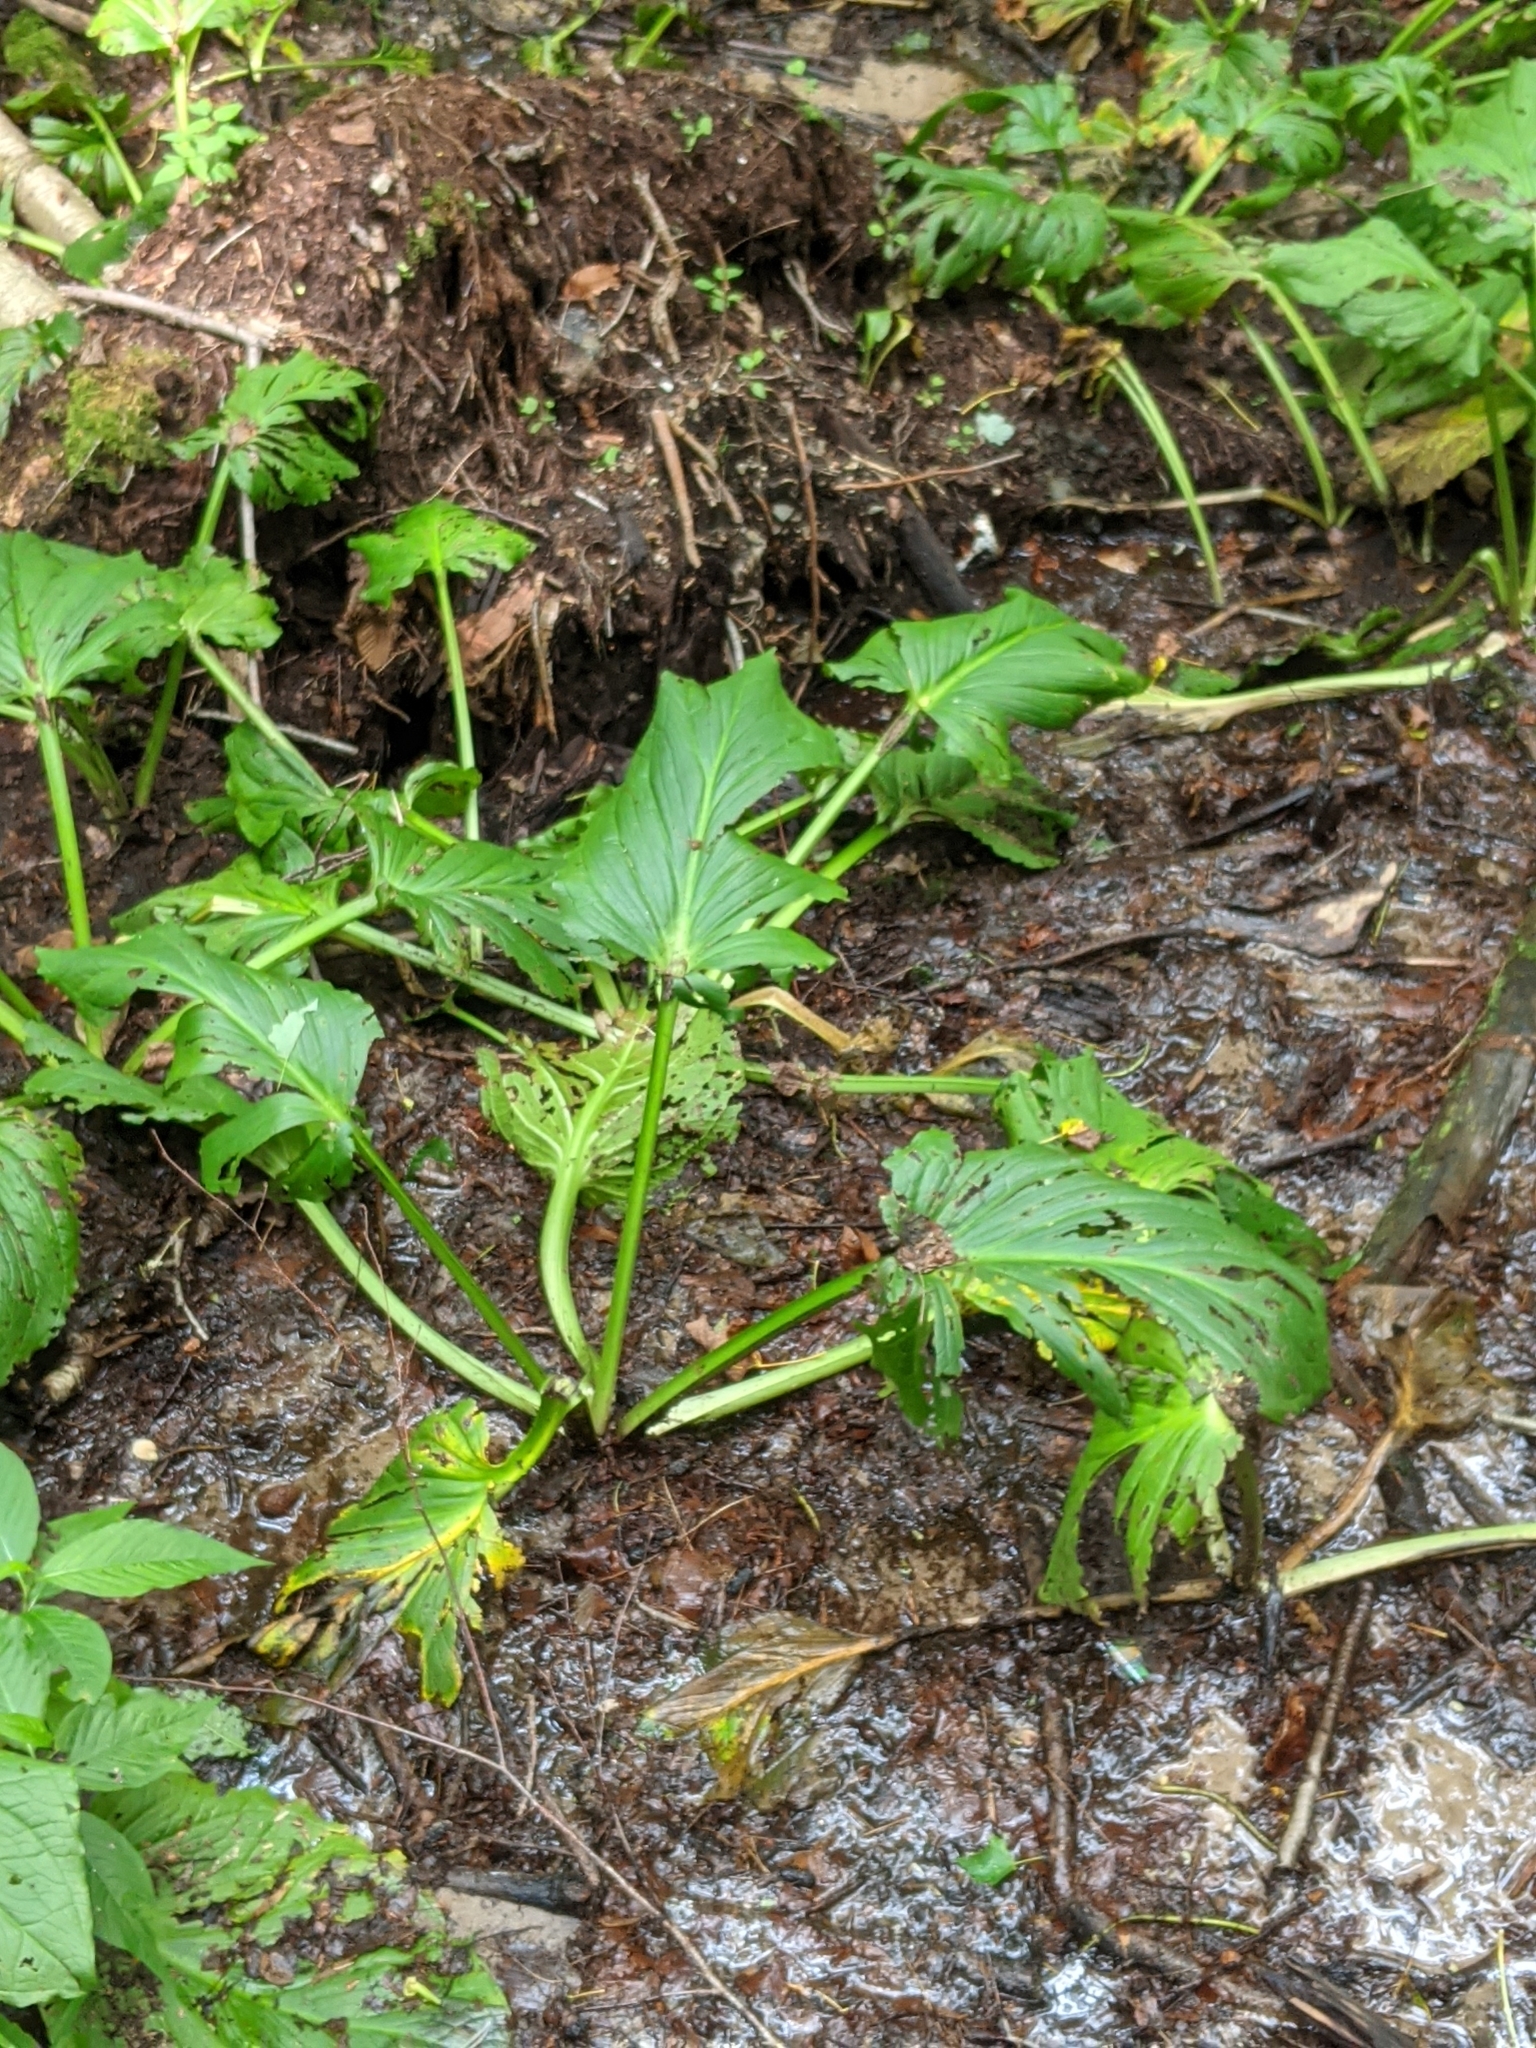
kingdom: Plantae
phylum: Tracheophyta
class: Liliopsida
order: Alismatales
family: Araceae
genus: Symplocarpus
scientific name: Symplocarpus foetidus
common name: Eastern skunk cabbage
